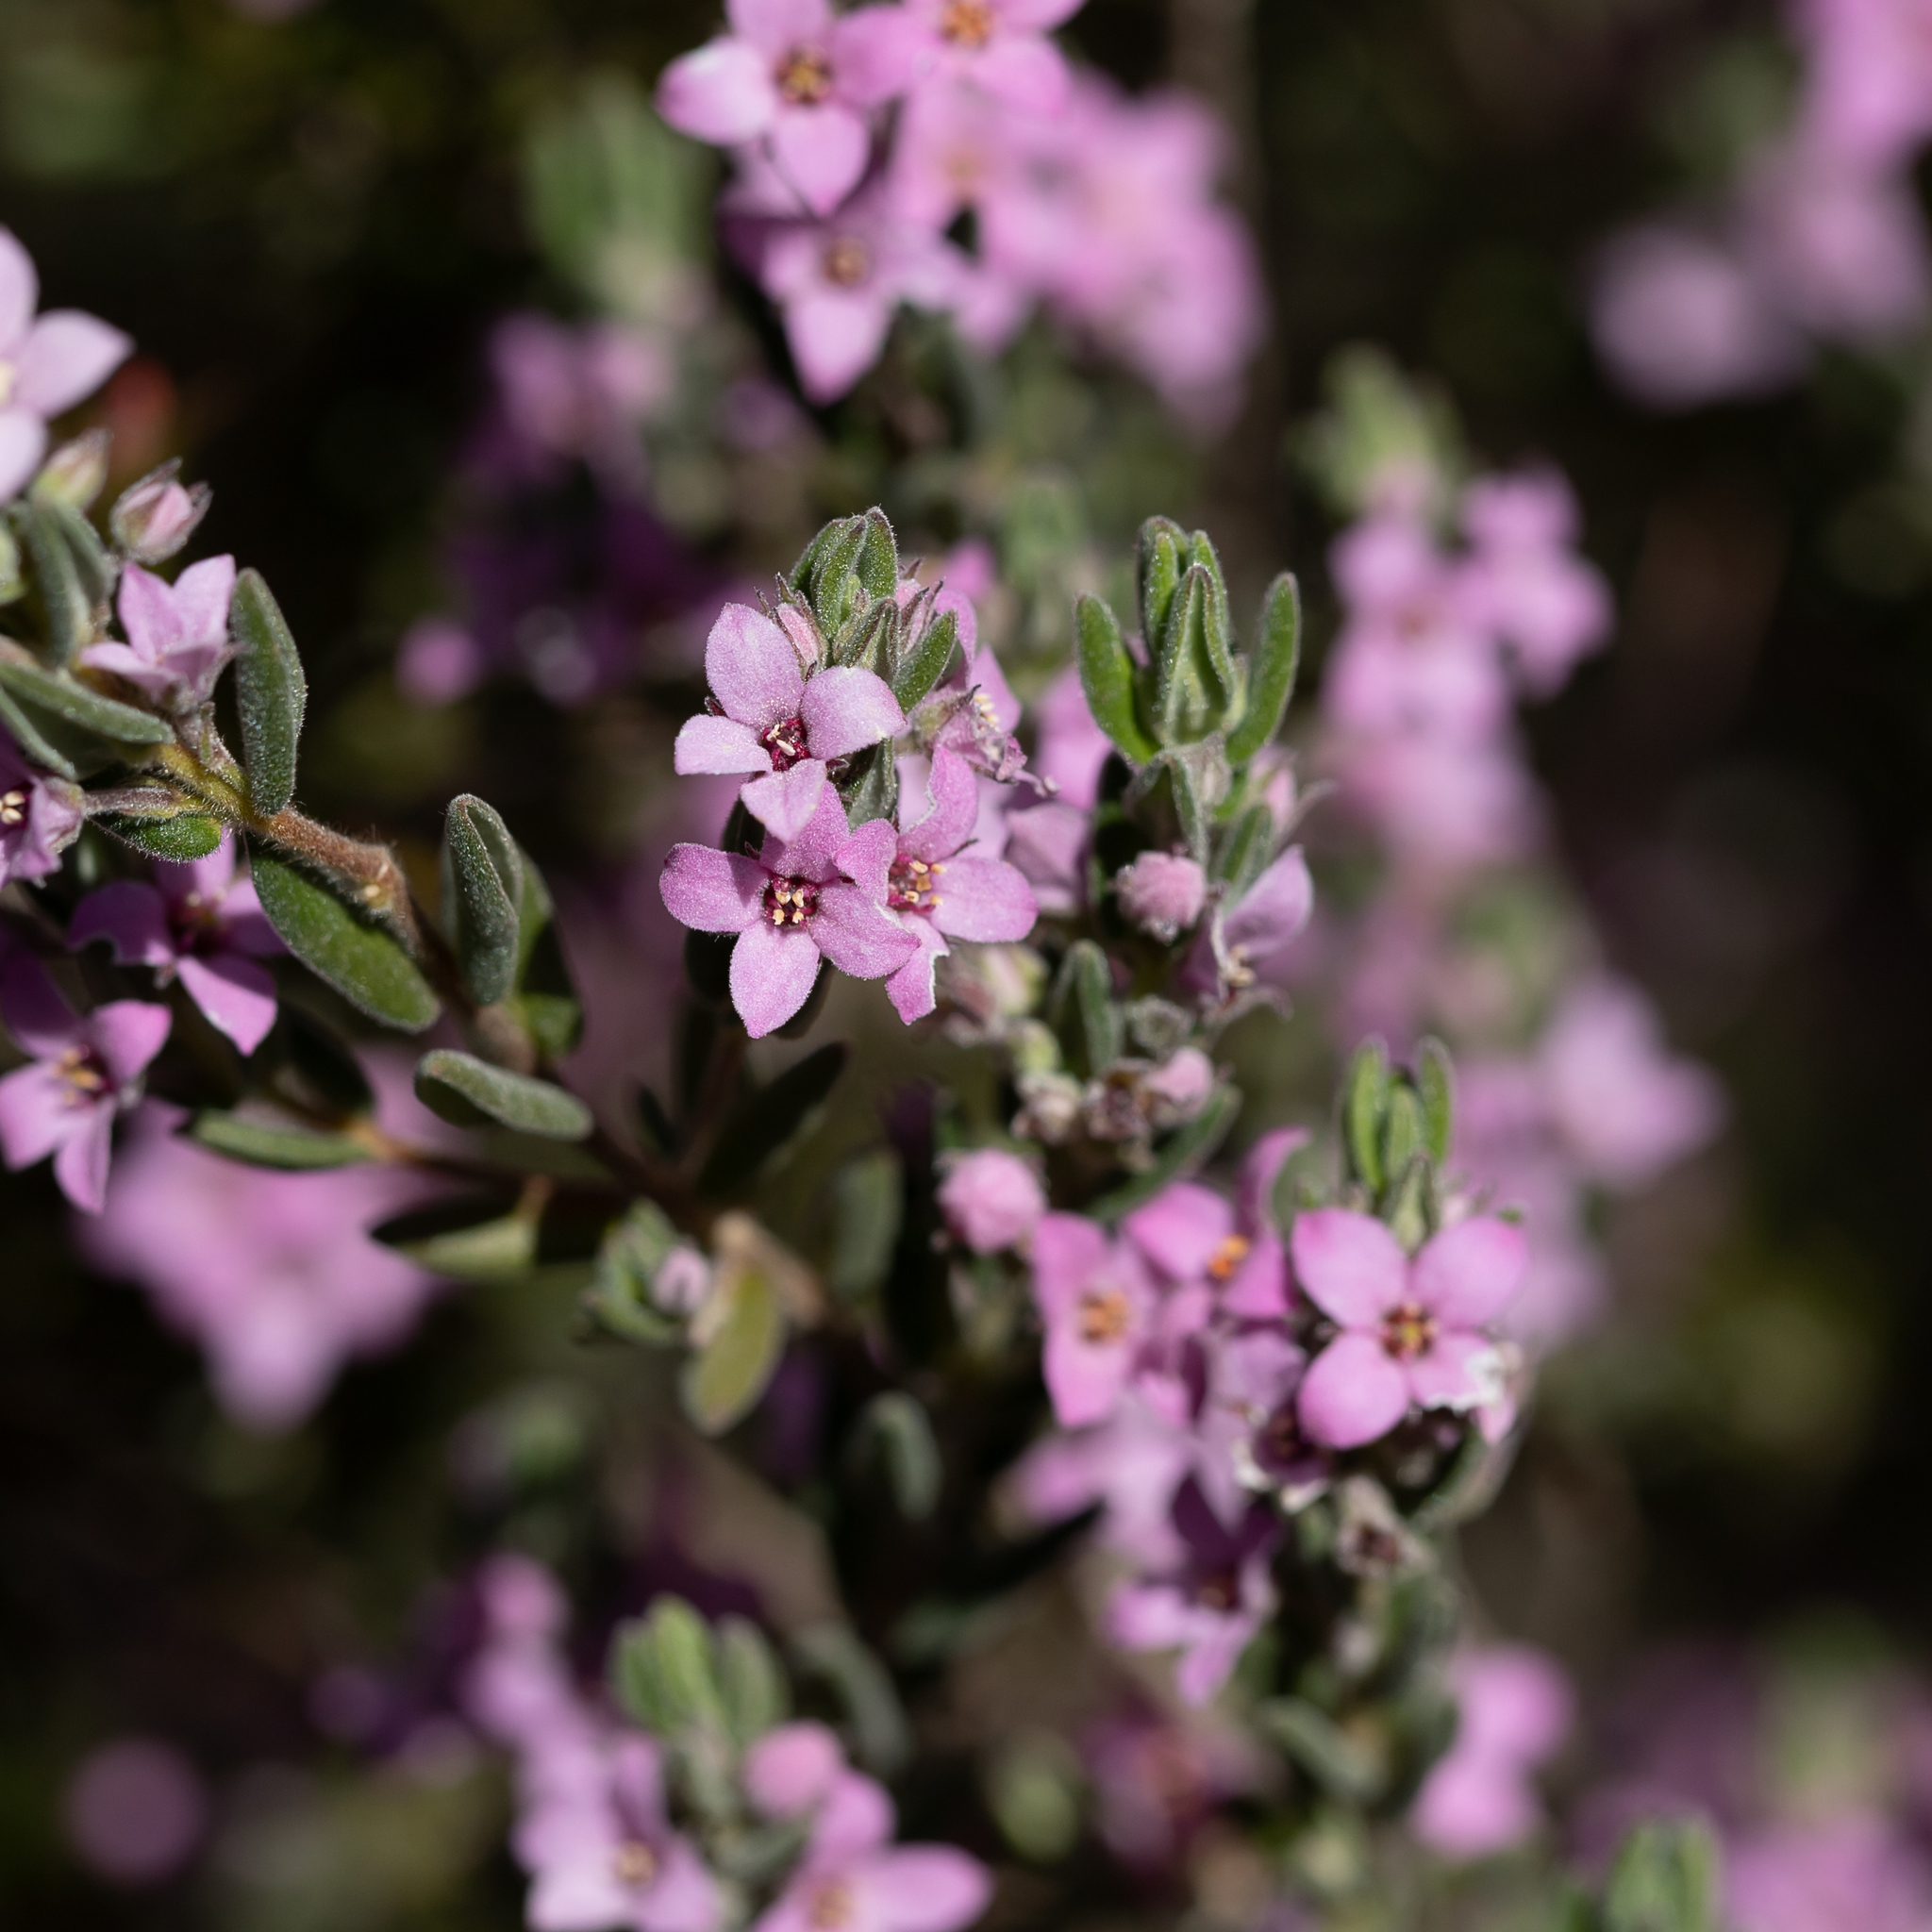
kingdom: Plantae
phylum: Tracheophyta
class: Magnoliopsida
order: Sapindales
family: Rutaceae
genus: Zieria
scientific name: Zieria veronicea
